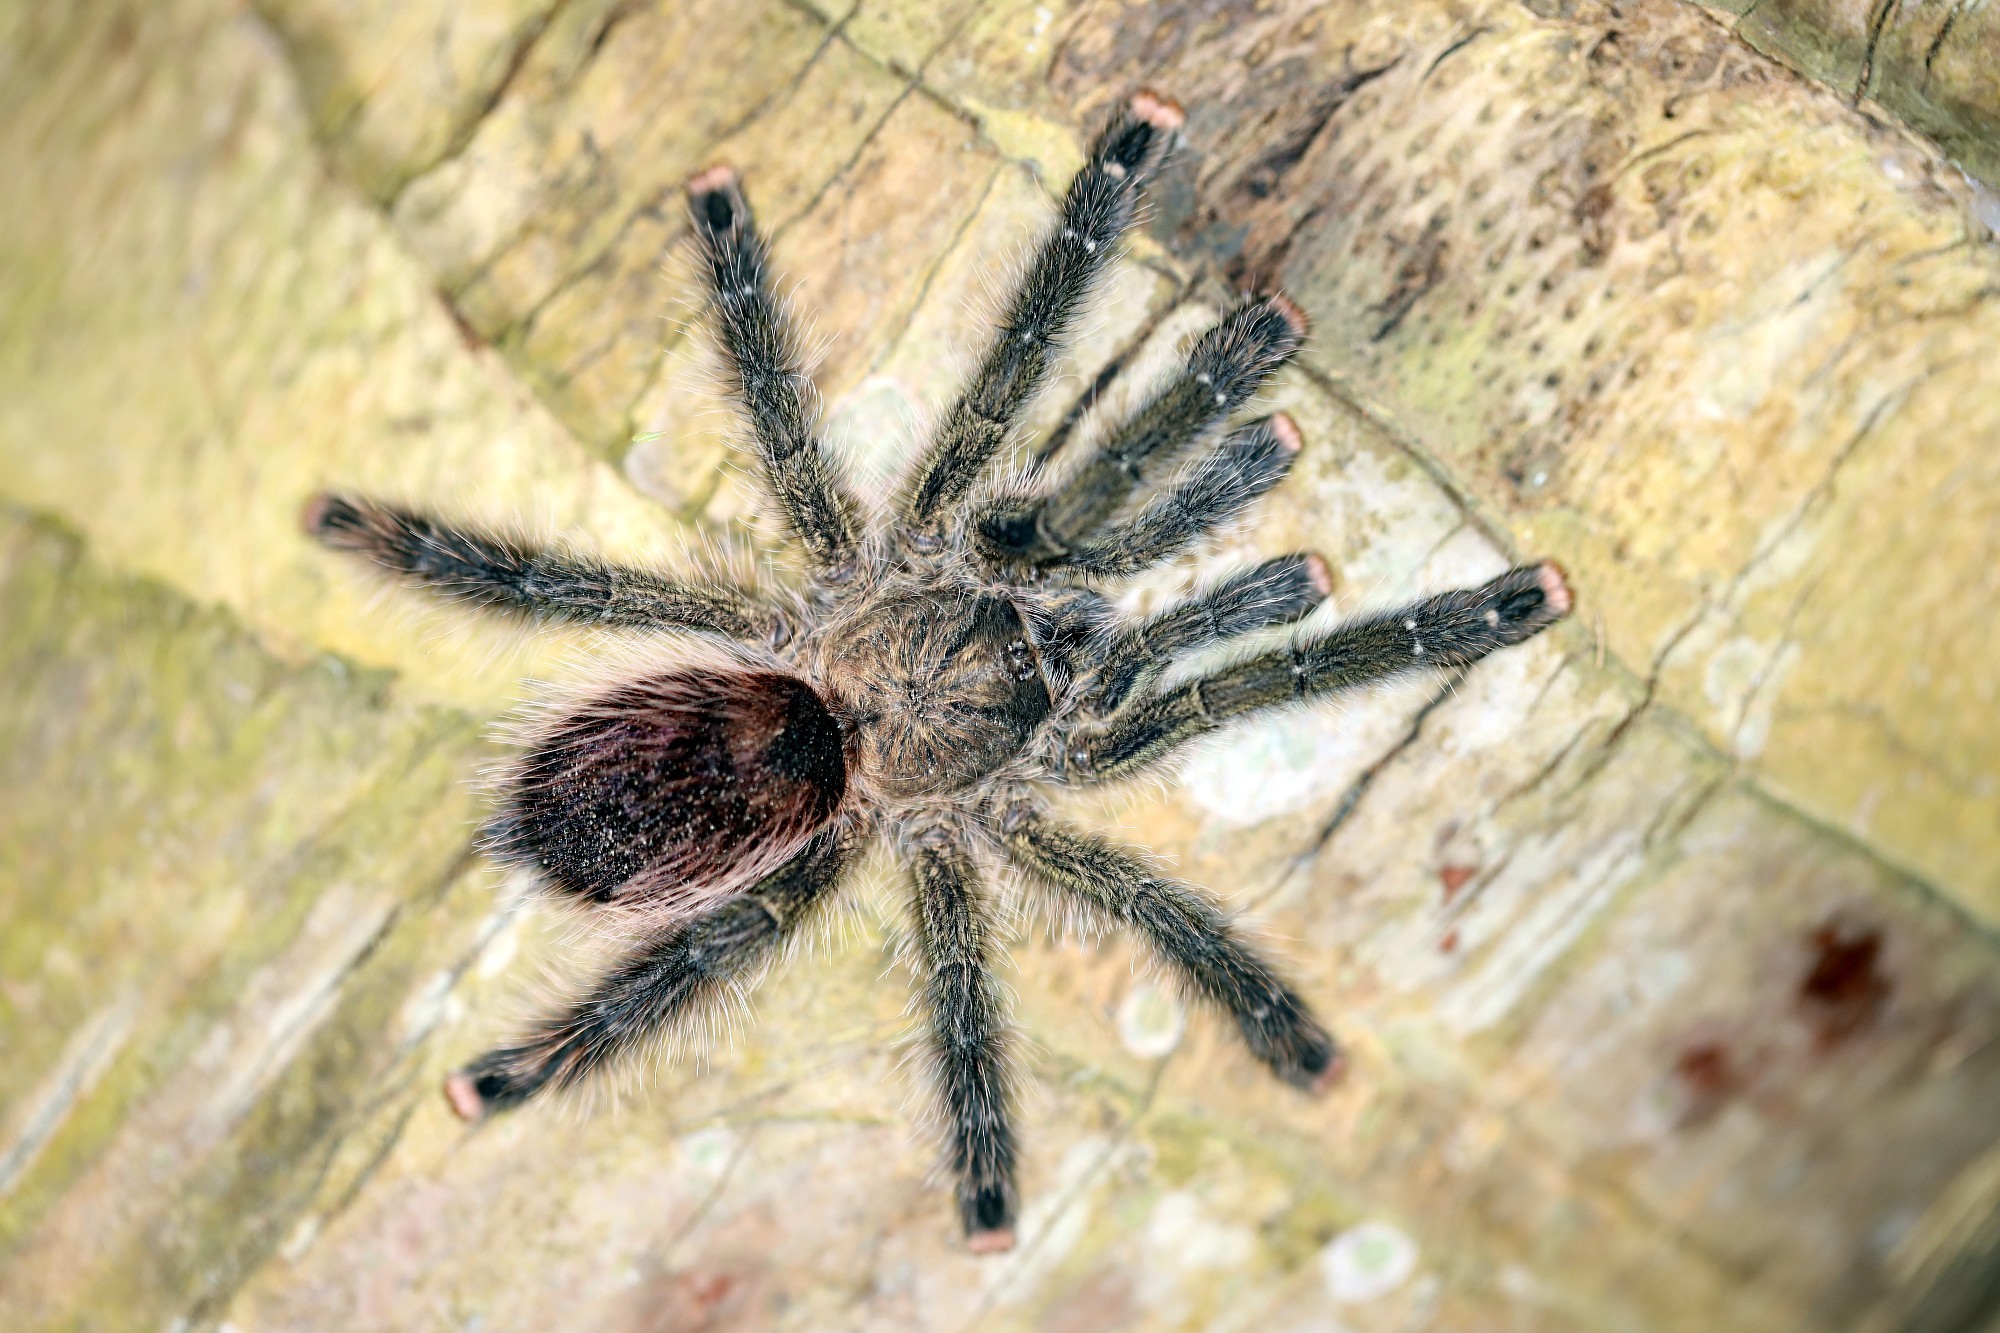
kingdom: Animalia
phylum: Arthropoda
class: Arachnida
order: Araneae
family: Theraphosidae
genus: Avicularia
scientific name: Avicularia juruensis
